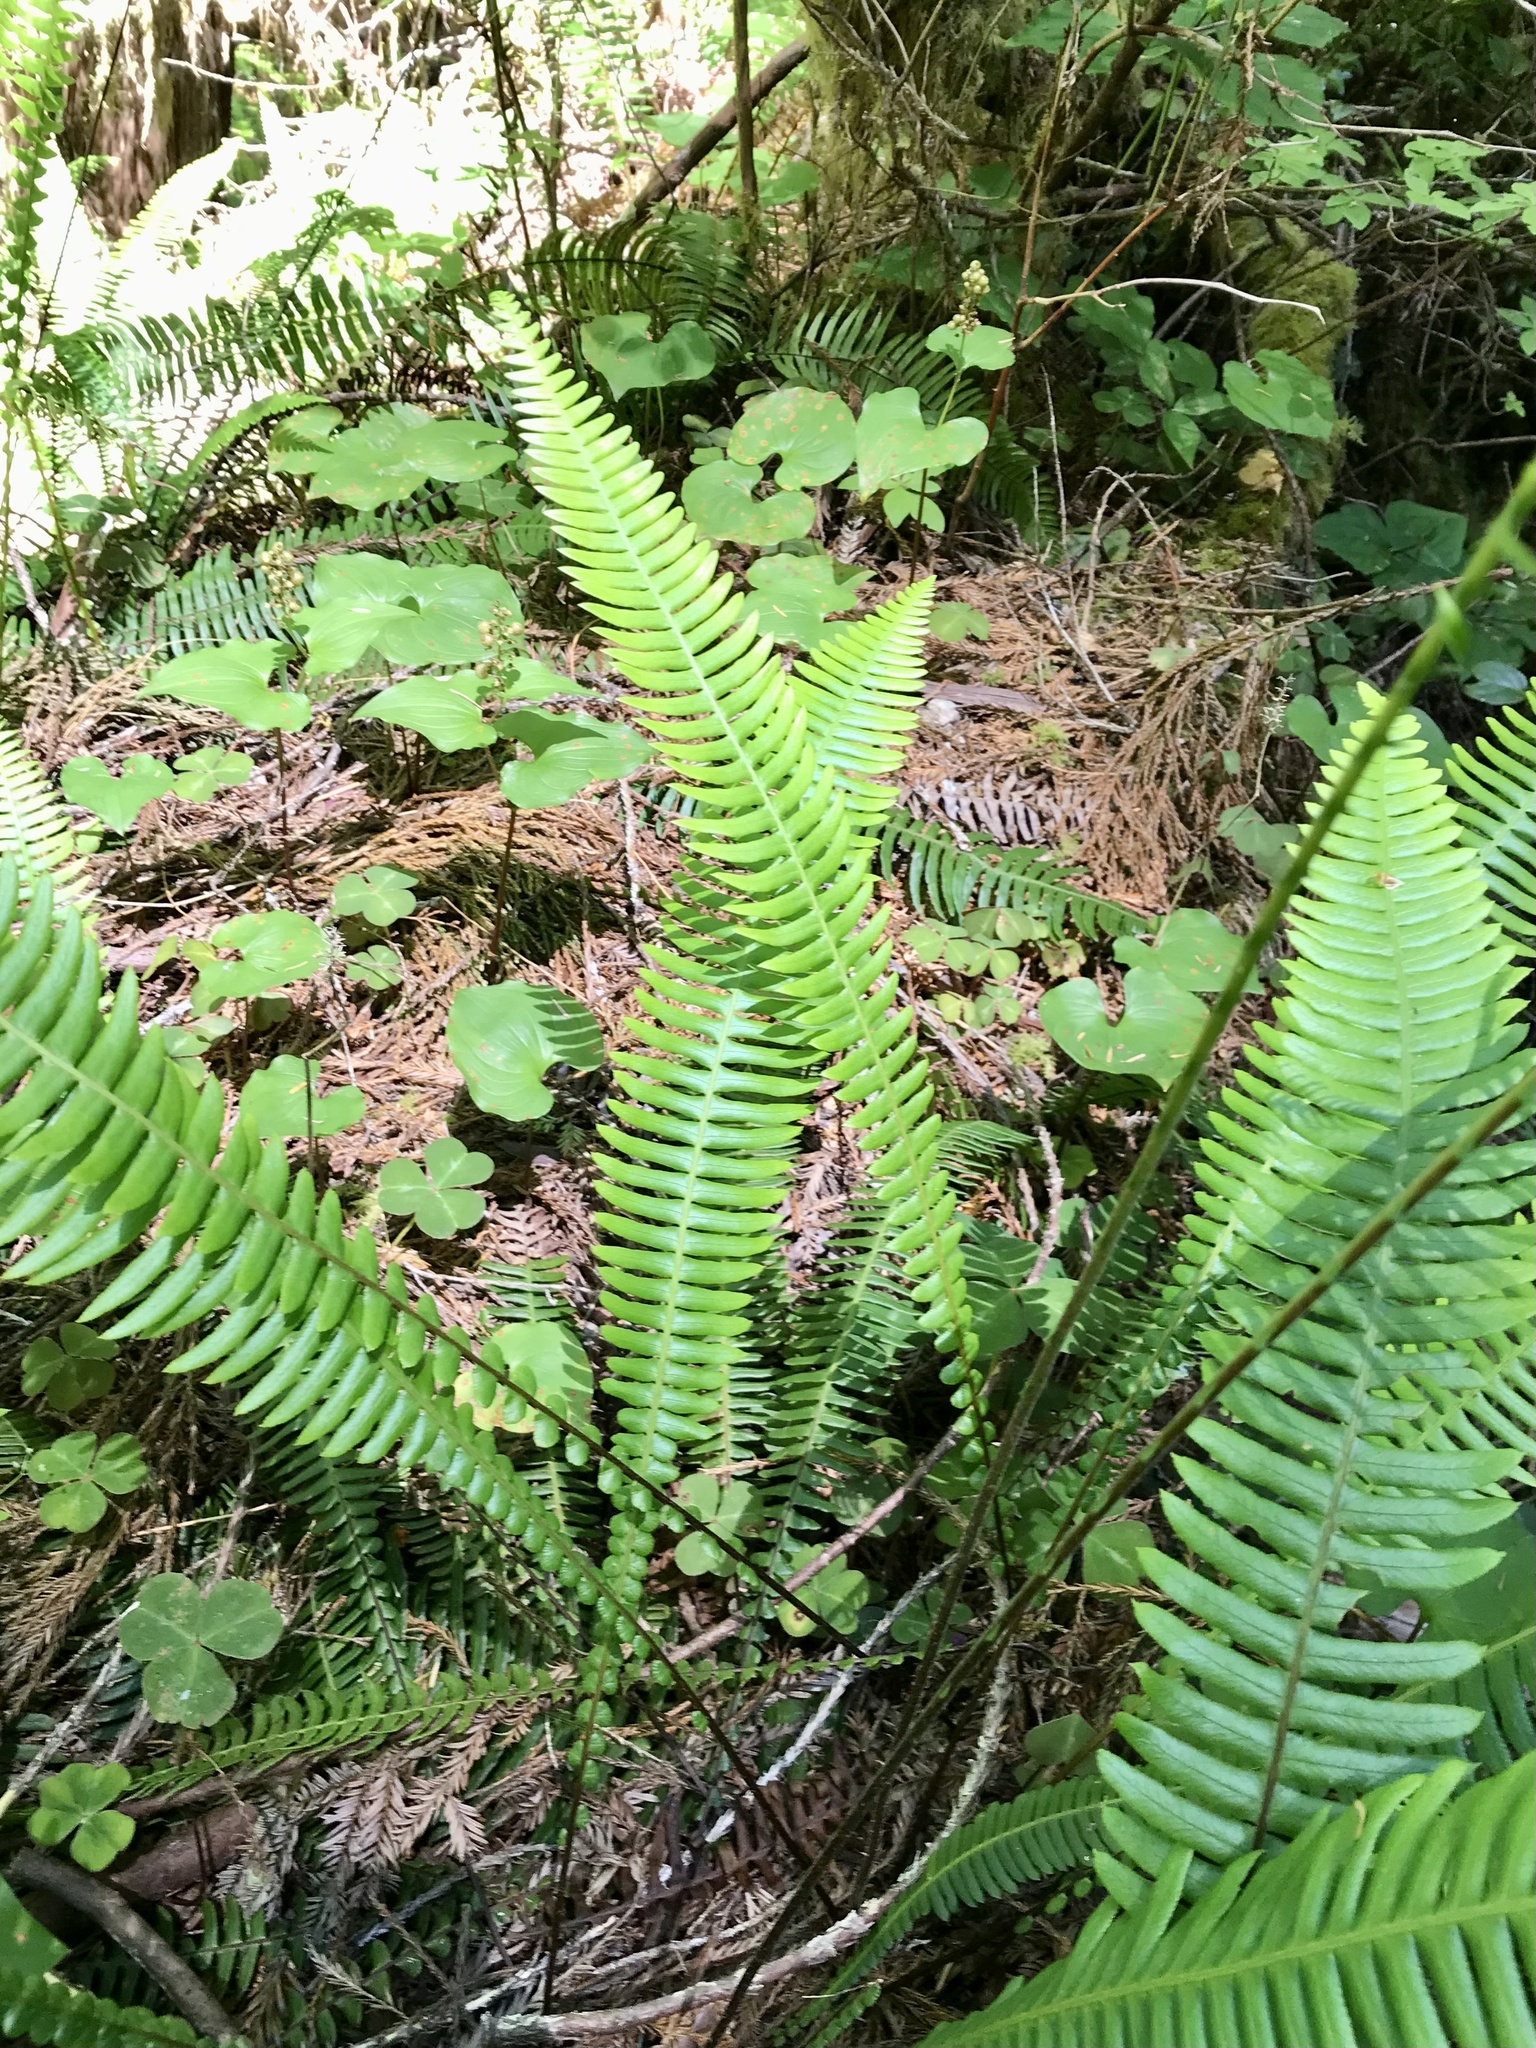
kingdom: Plantae
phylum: Tracheophyta
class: Polypodiopsida
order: Polypodiales
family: Blechnaceae
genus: Struthiopteris
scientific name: Struthiopteris spicant
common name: Deer fern
